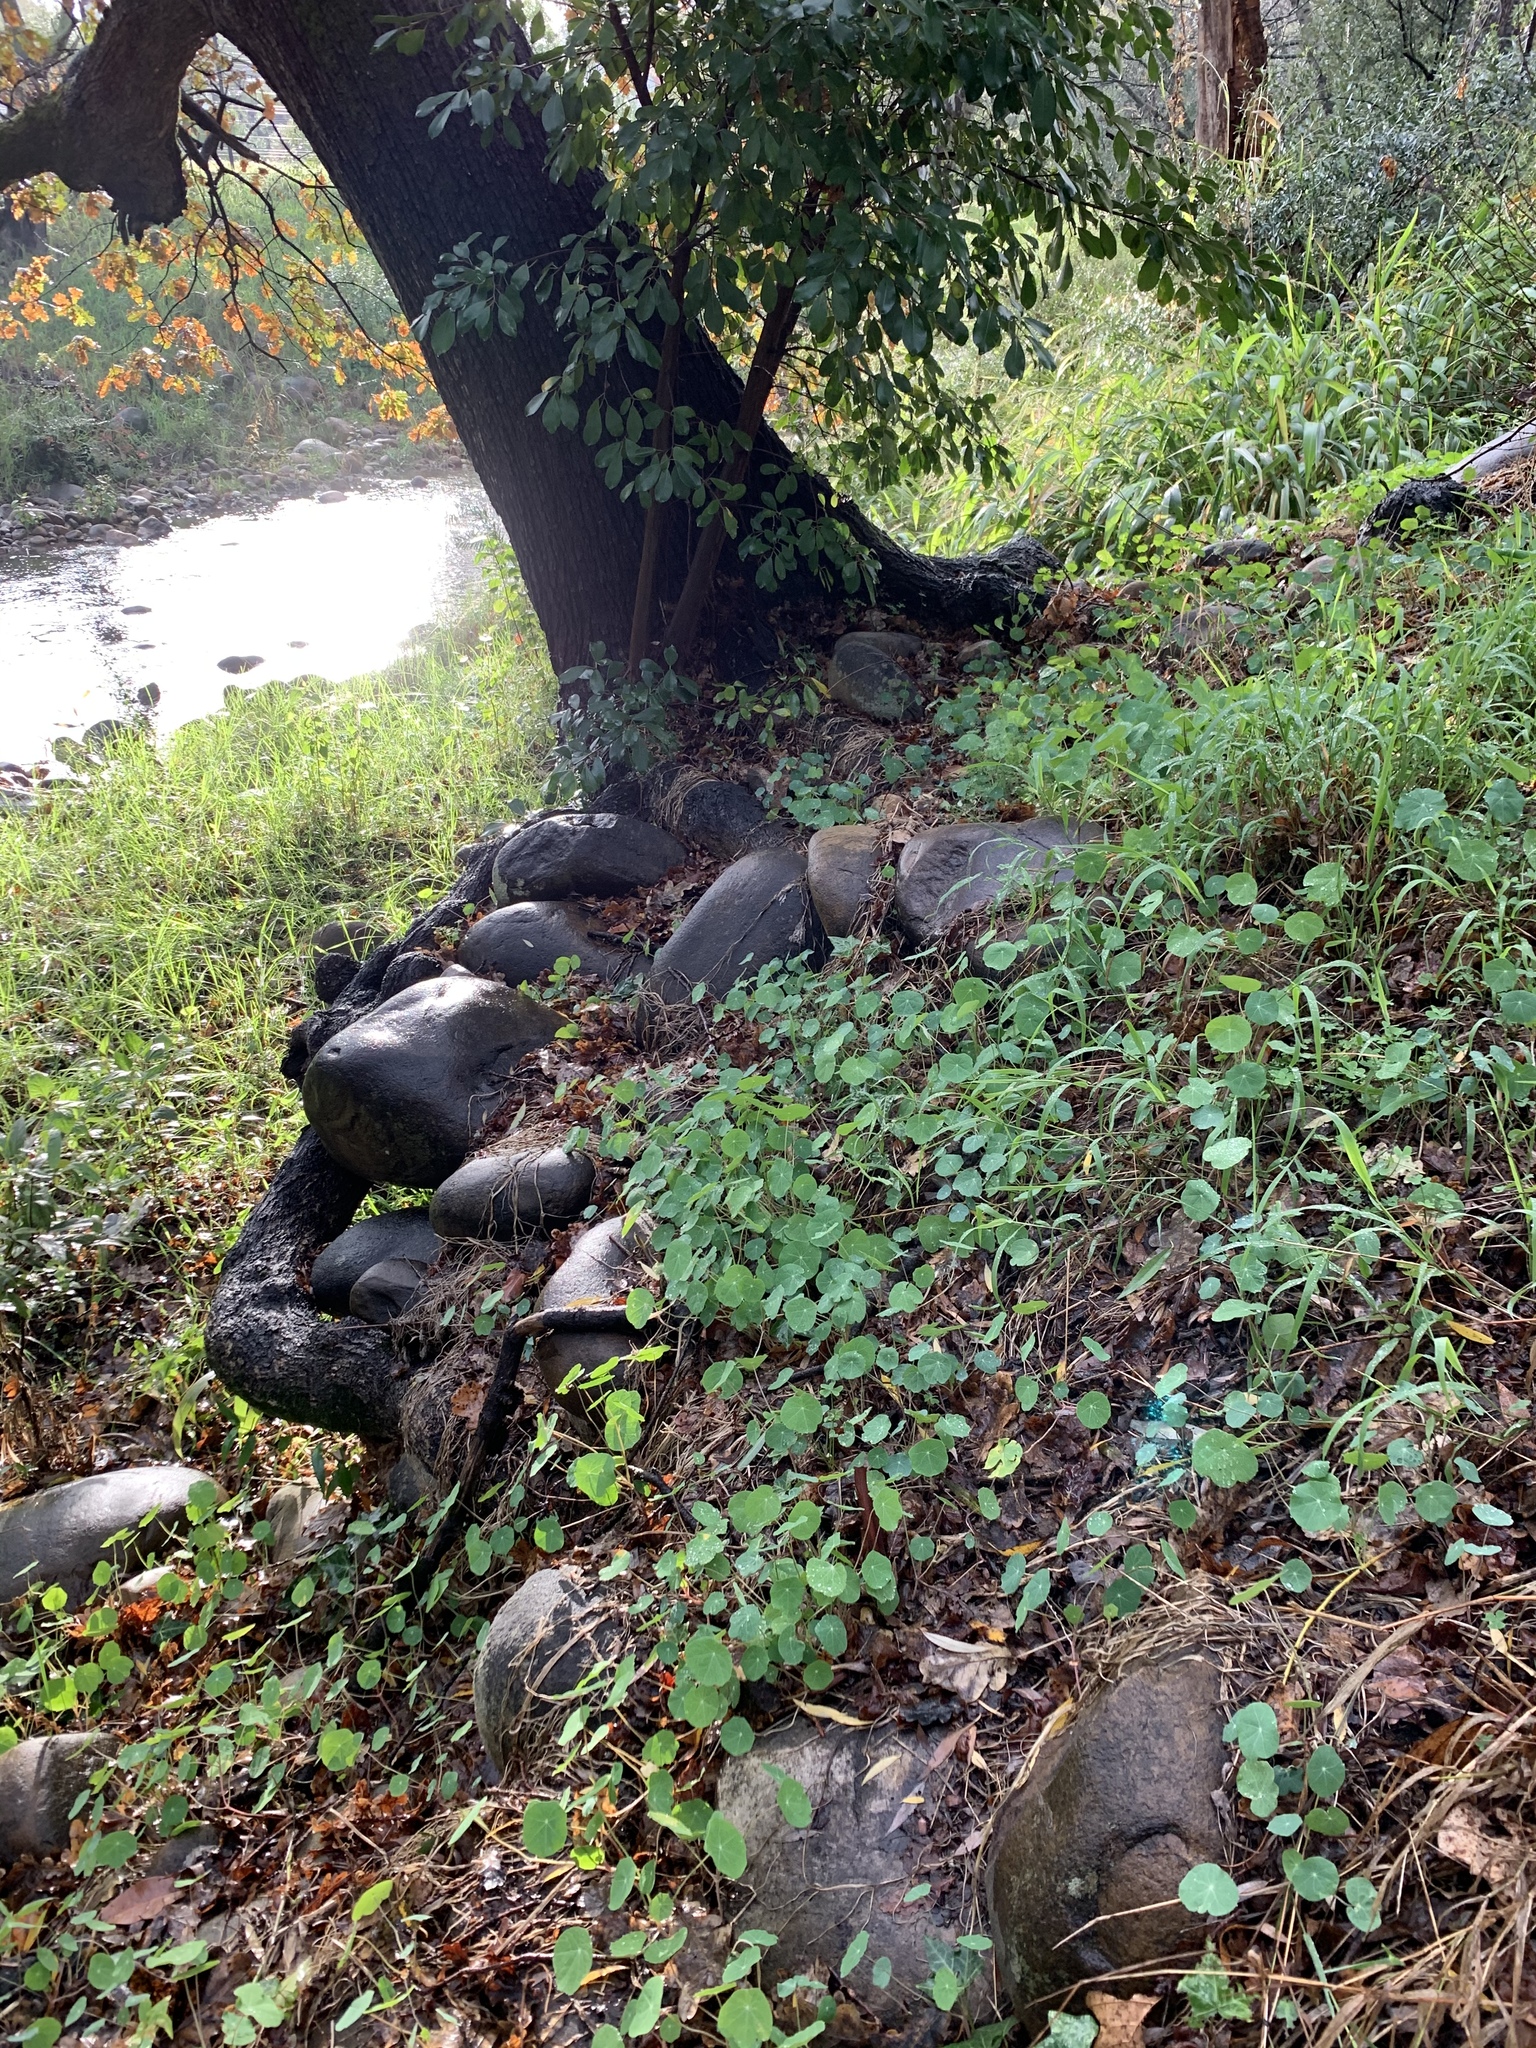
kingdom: Plantae
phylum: Tracheophyta
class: Magnoliopsida
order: Brassicales
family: Tropaeolaceae
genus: Tropaeolum
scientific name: Tropaeolum majus
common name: Nasturtium
